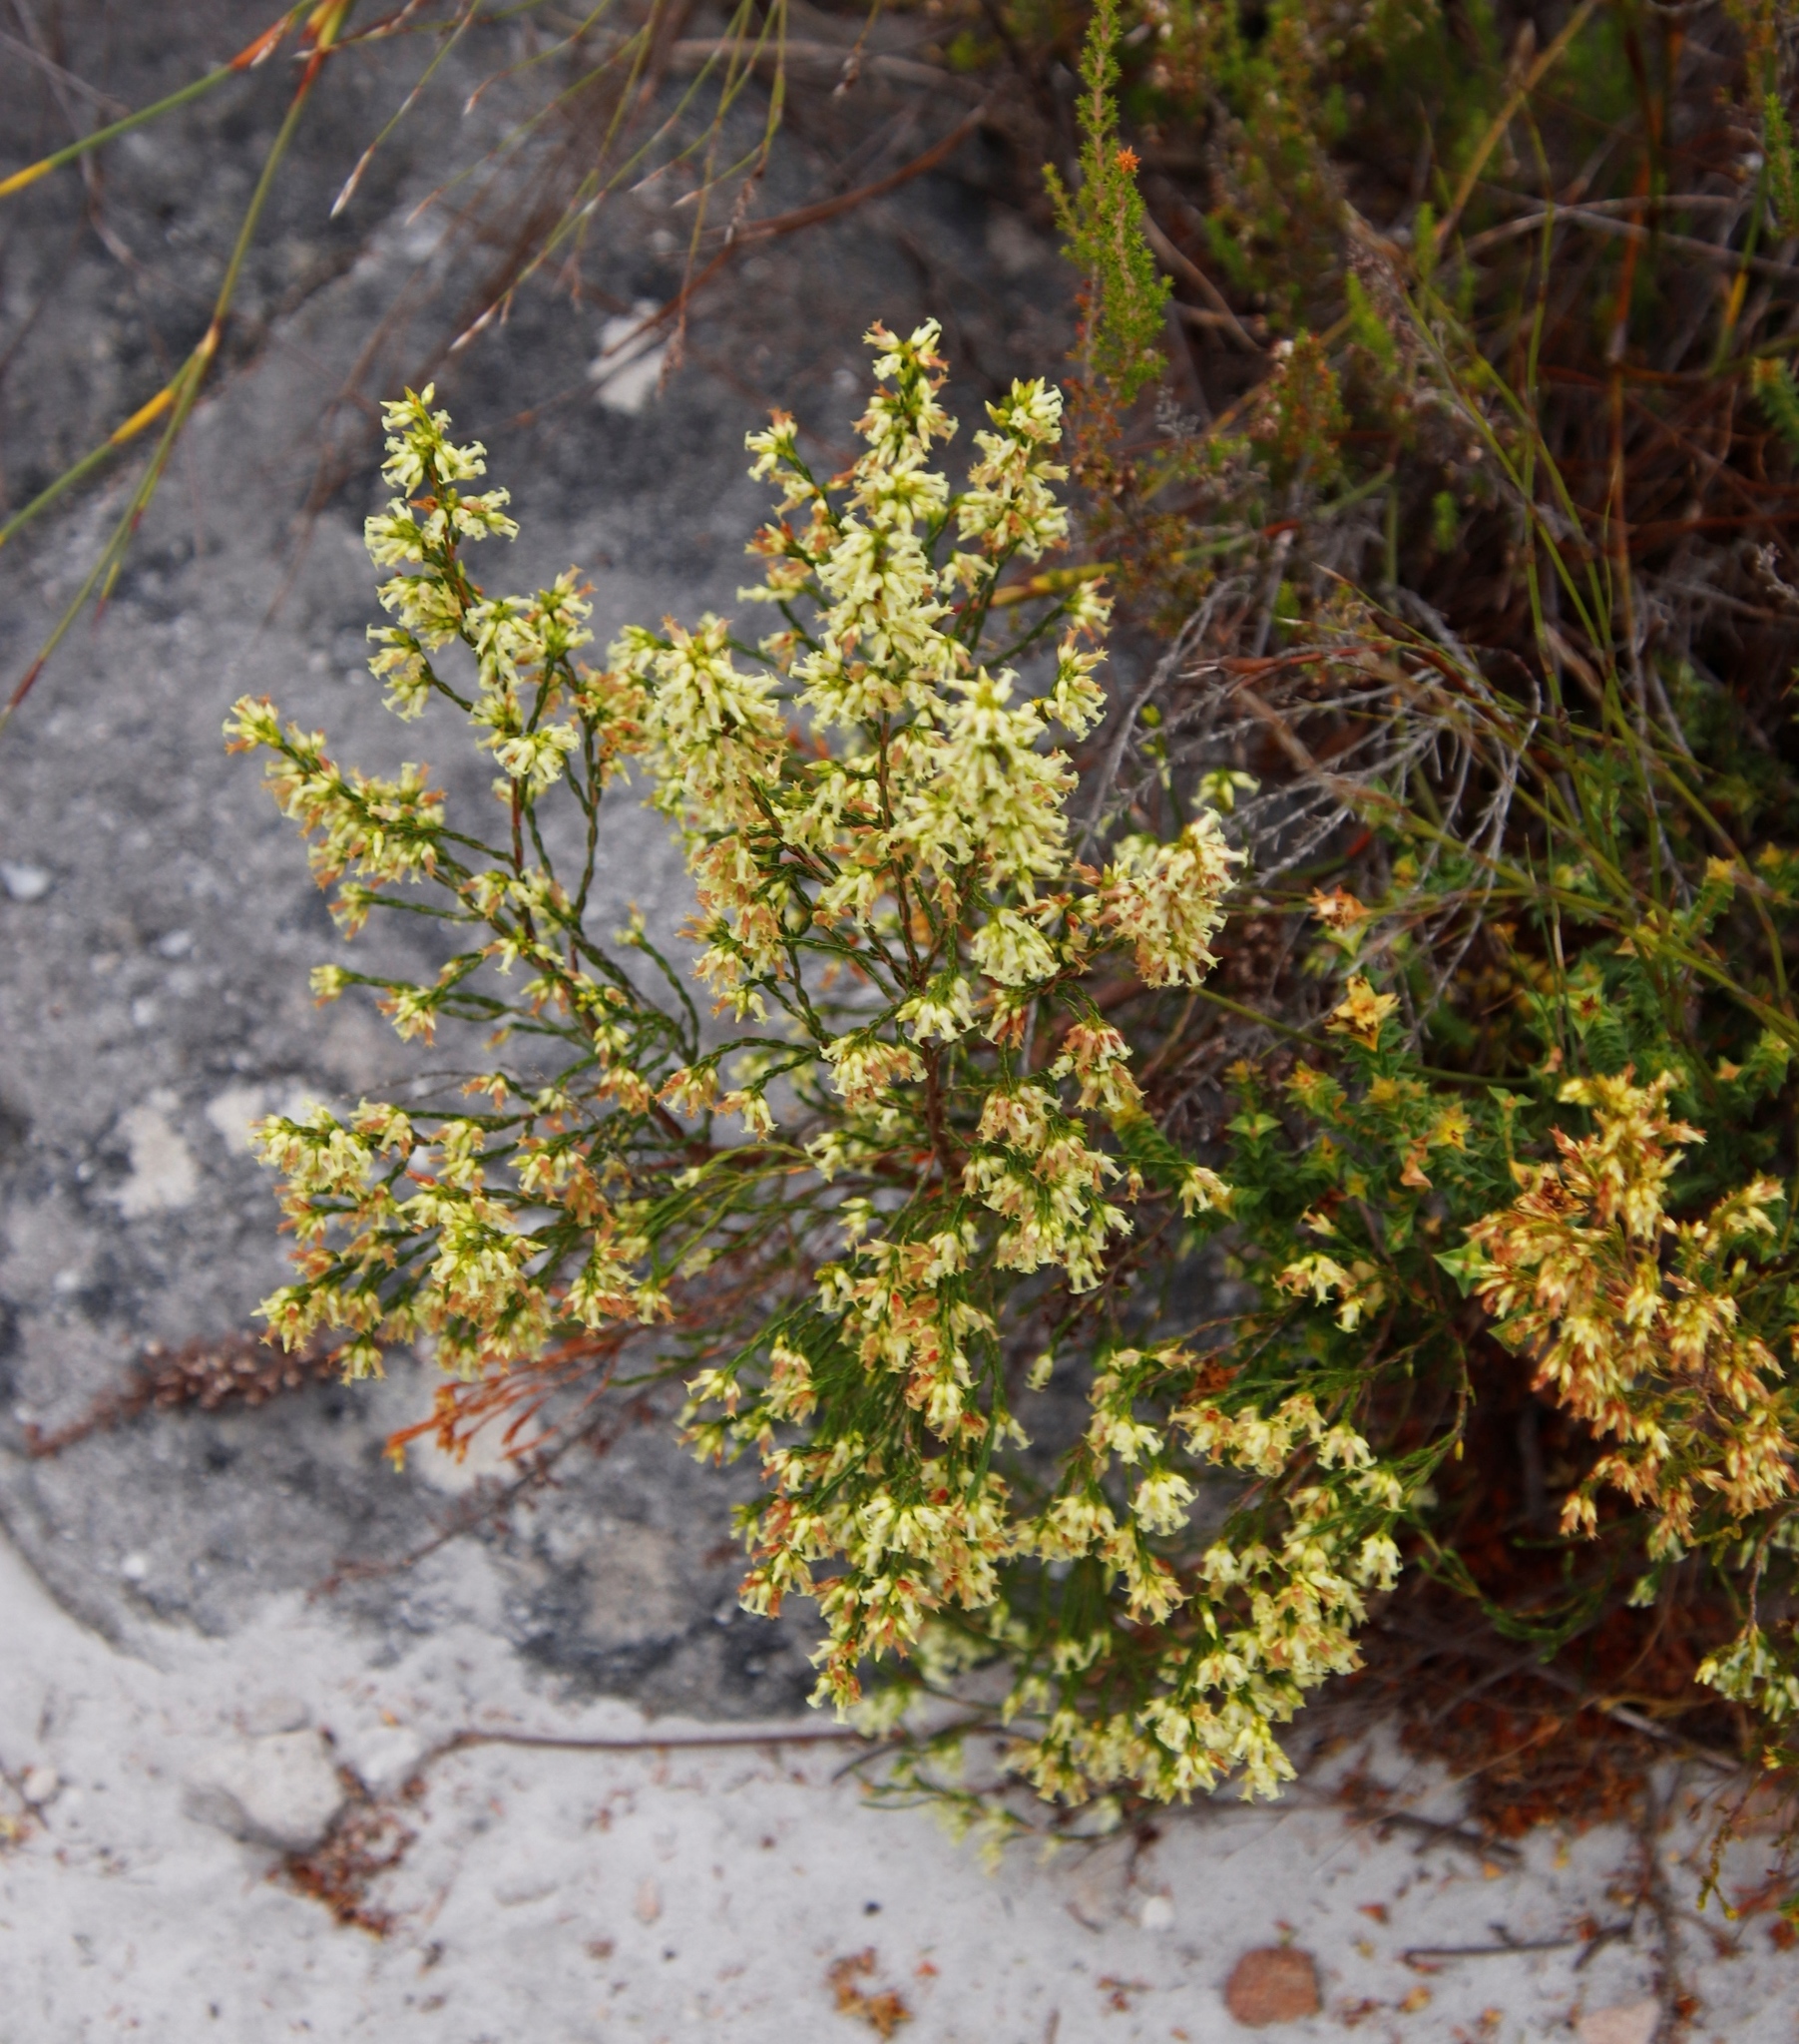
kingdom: Plantae
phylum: Tracheophyta
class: Magnoliopsida
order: Ericales
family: Ericaceae
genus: Erica
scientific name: Erica lutea
